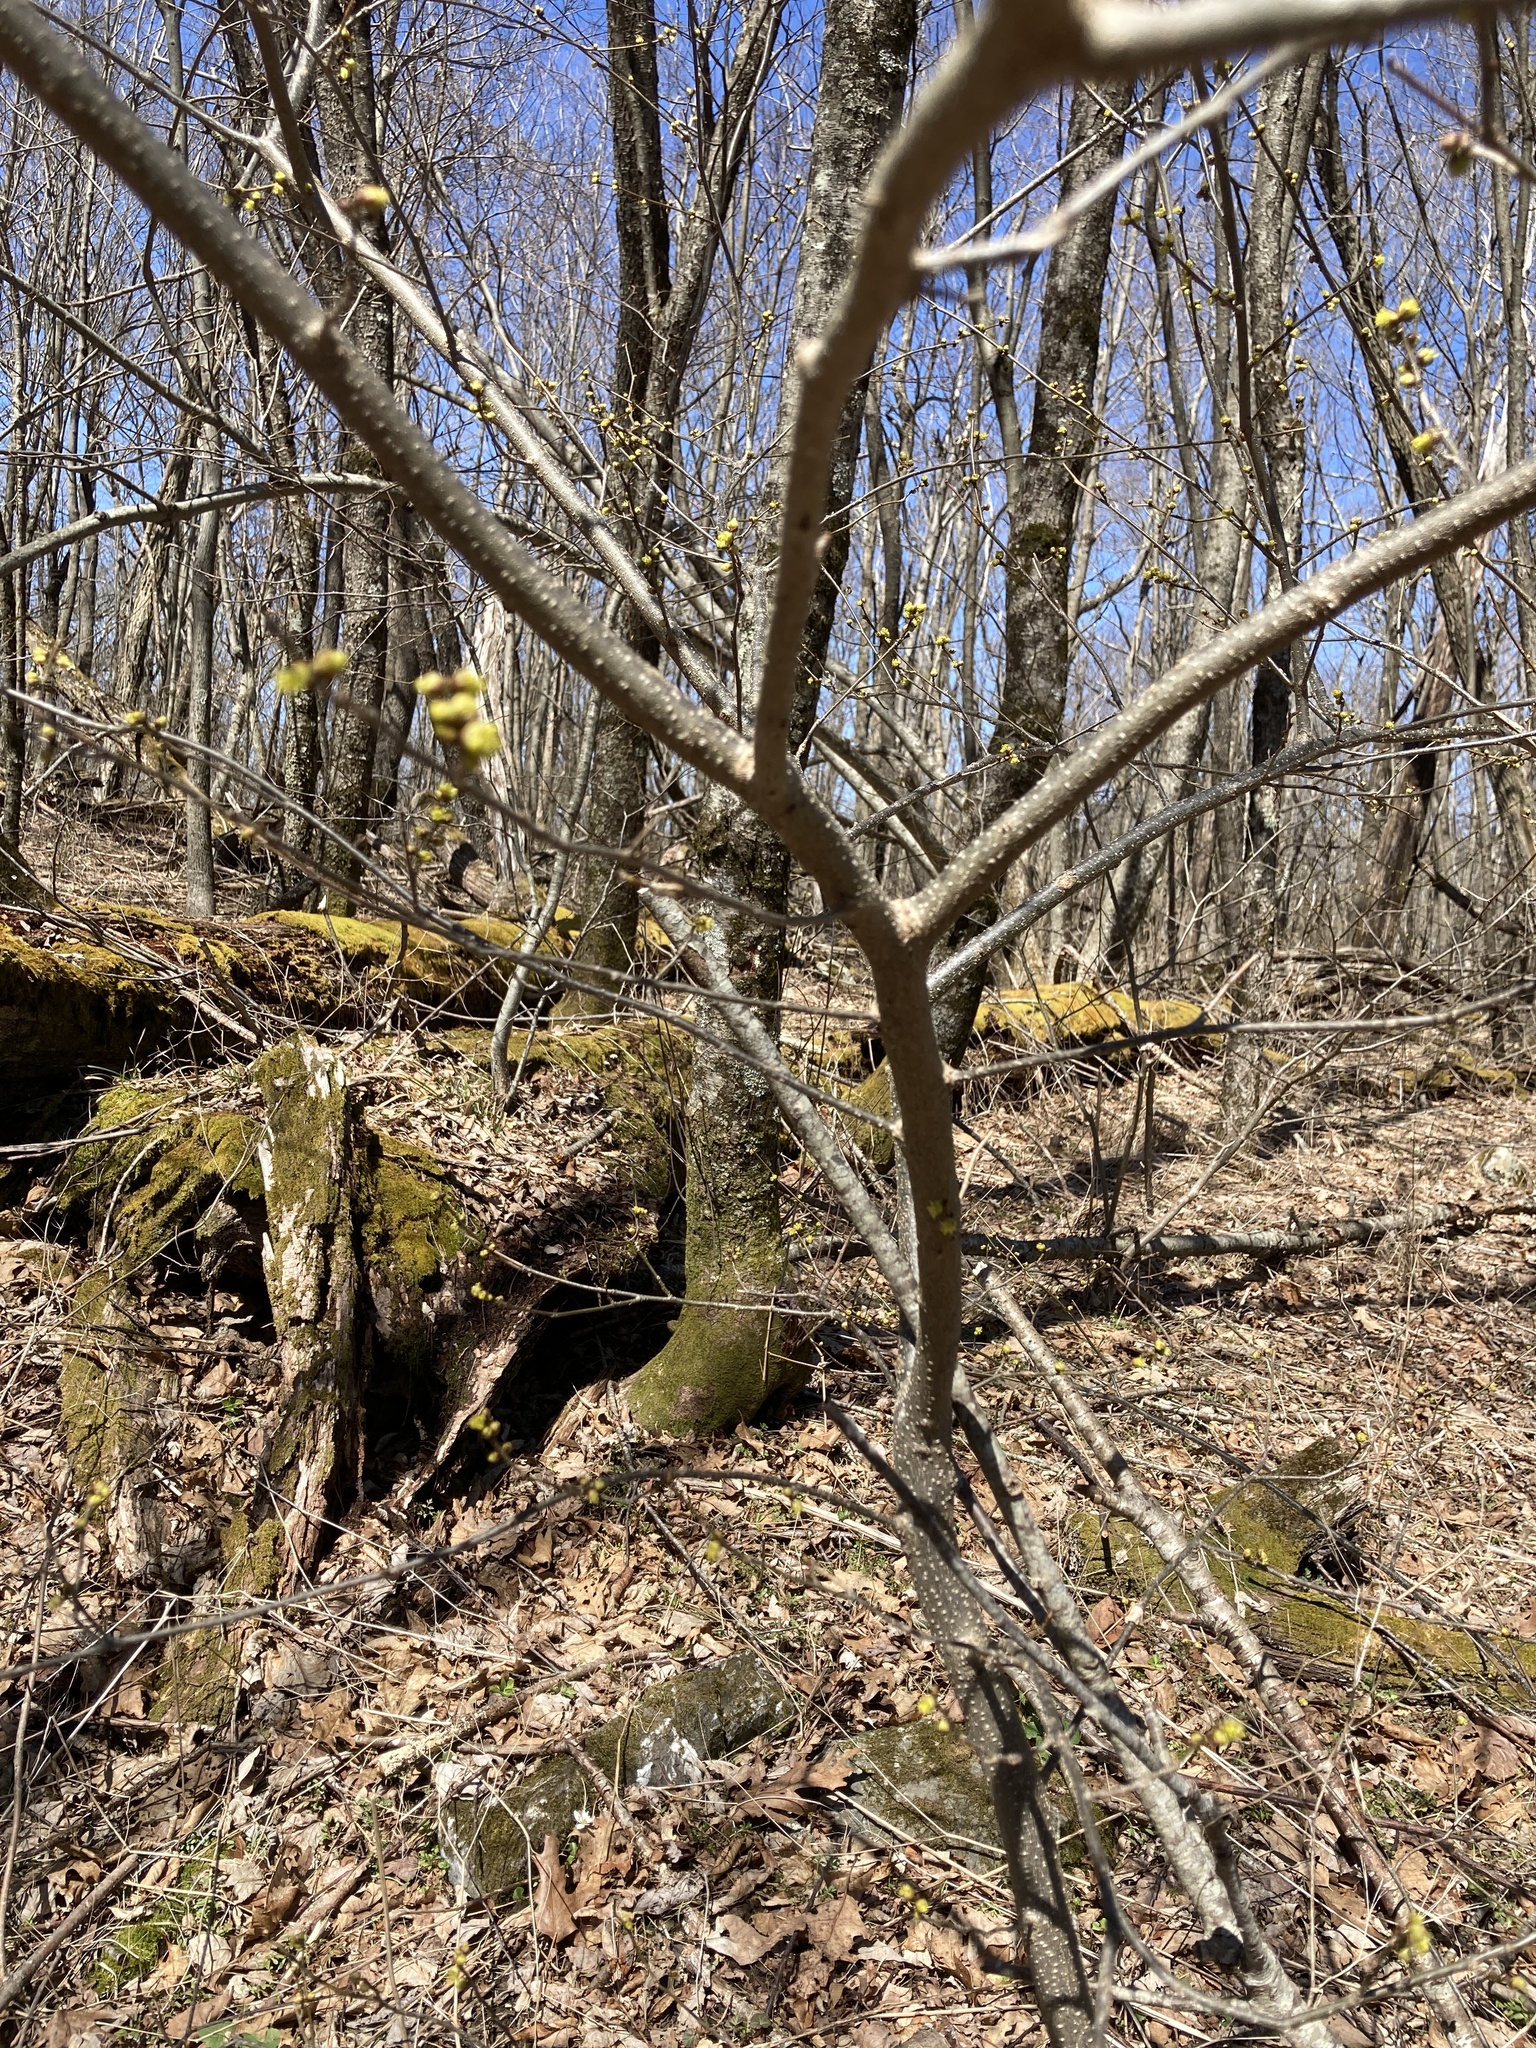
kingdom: Plantae
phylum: Tracheophyta
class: Magnoliopsida
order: Laurales
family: Lauraceae
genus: Lindera
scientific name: Lindera benzoin
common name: Spicebush
